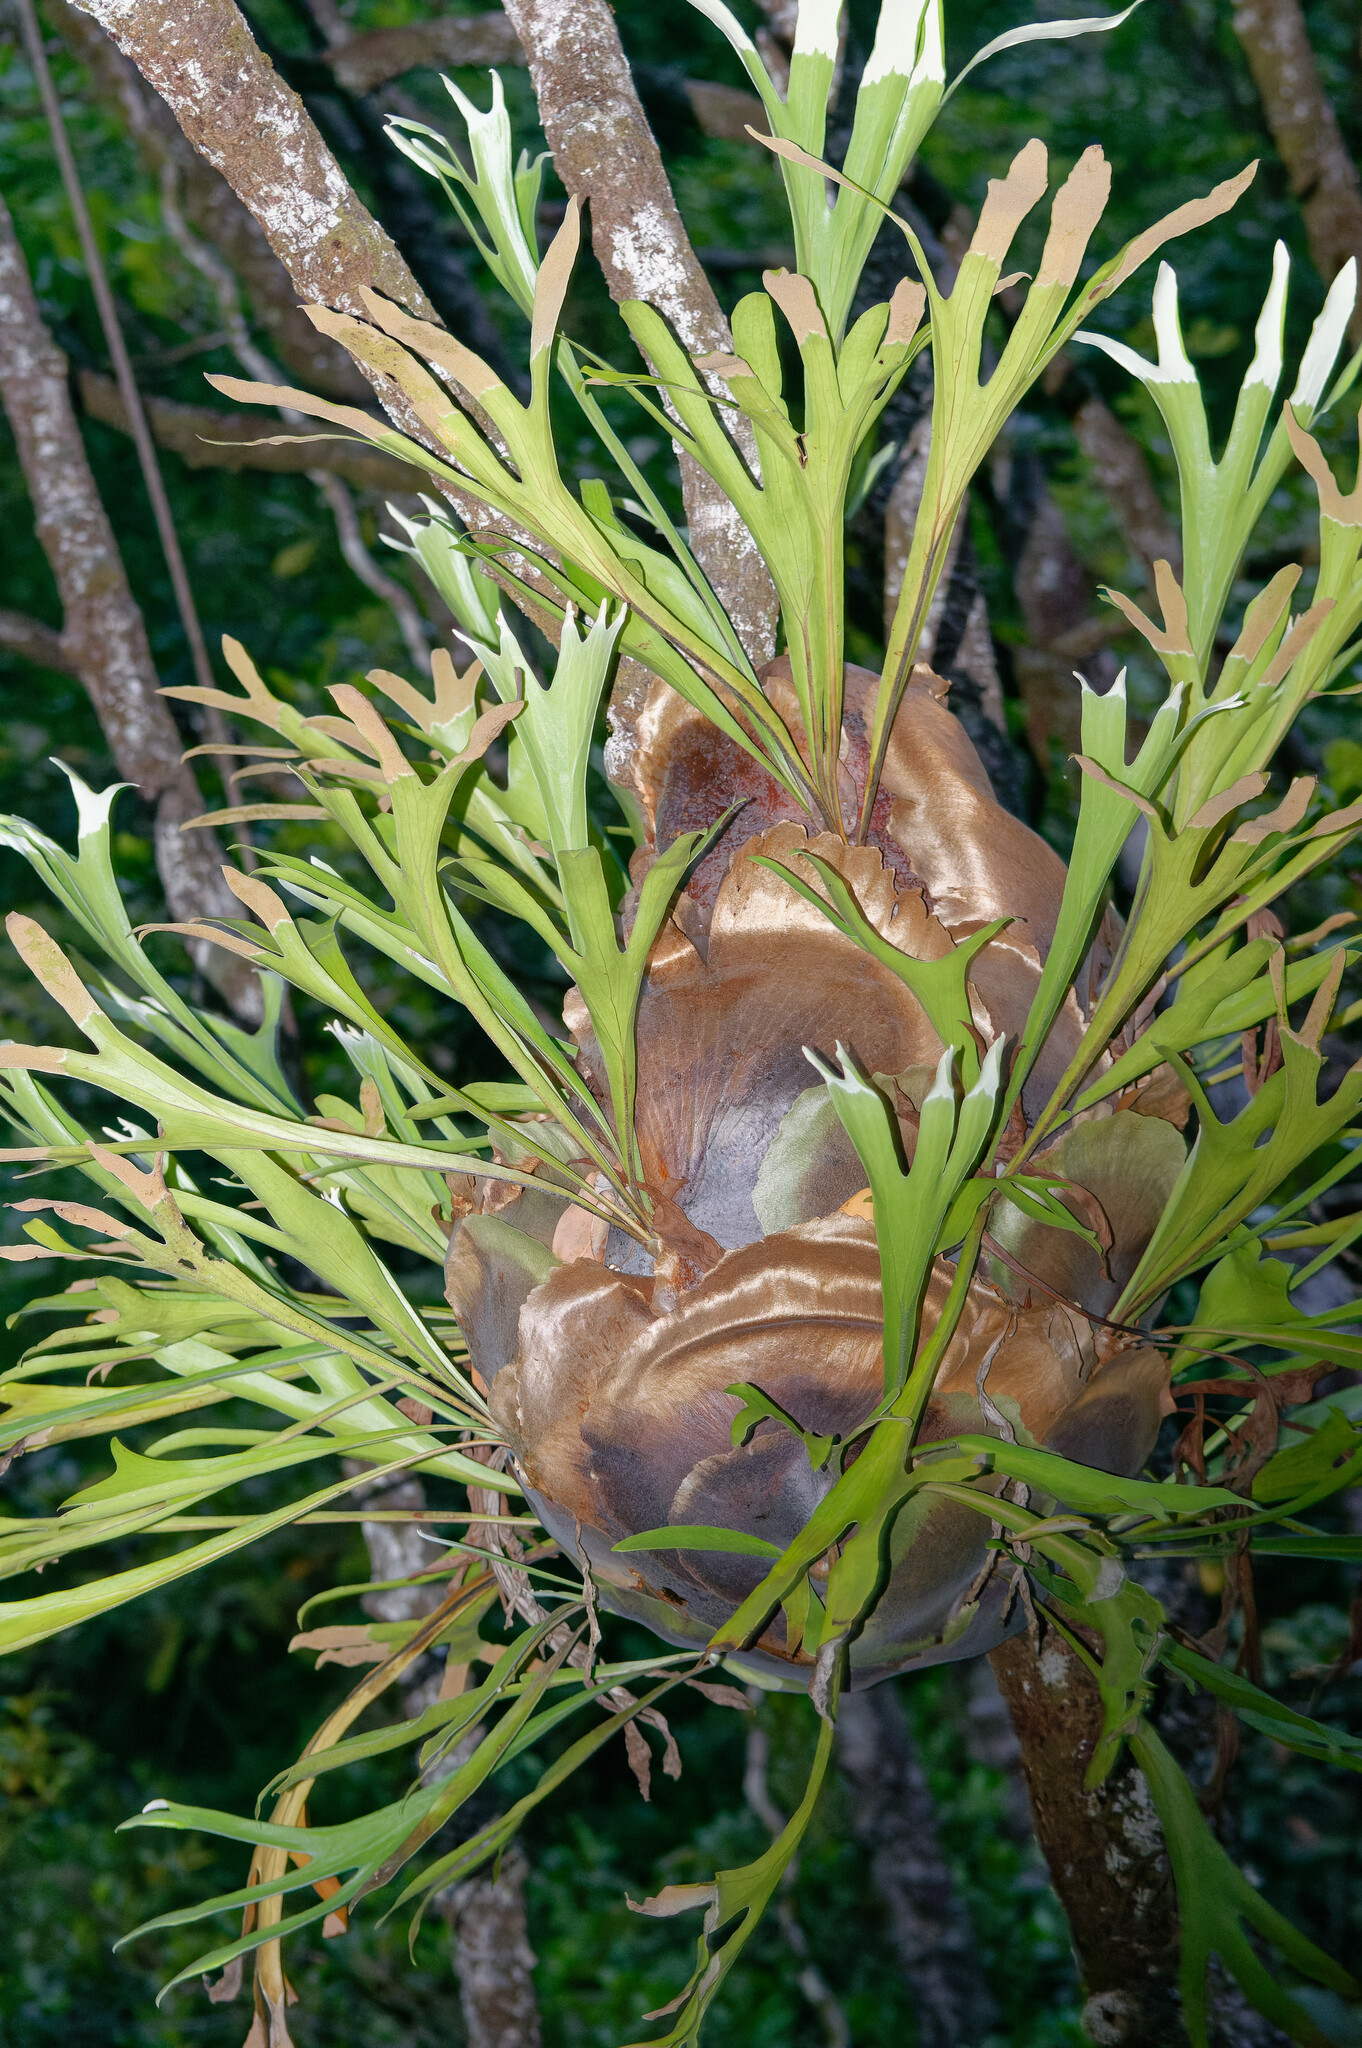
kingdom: Plantae
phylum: Tracheophyta
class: Polypodiopsida
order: Polypodiales
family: Polypodiaceae
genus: Platycerium
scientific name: Platycerium hillii
